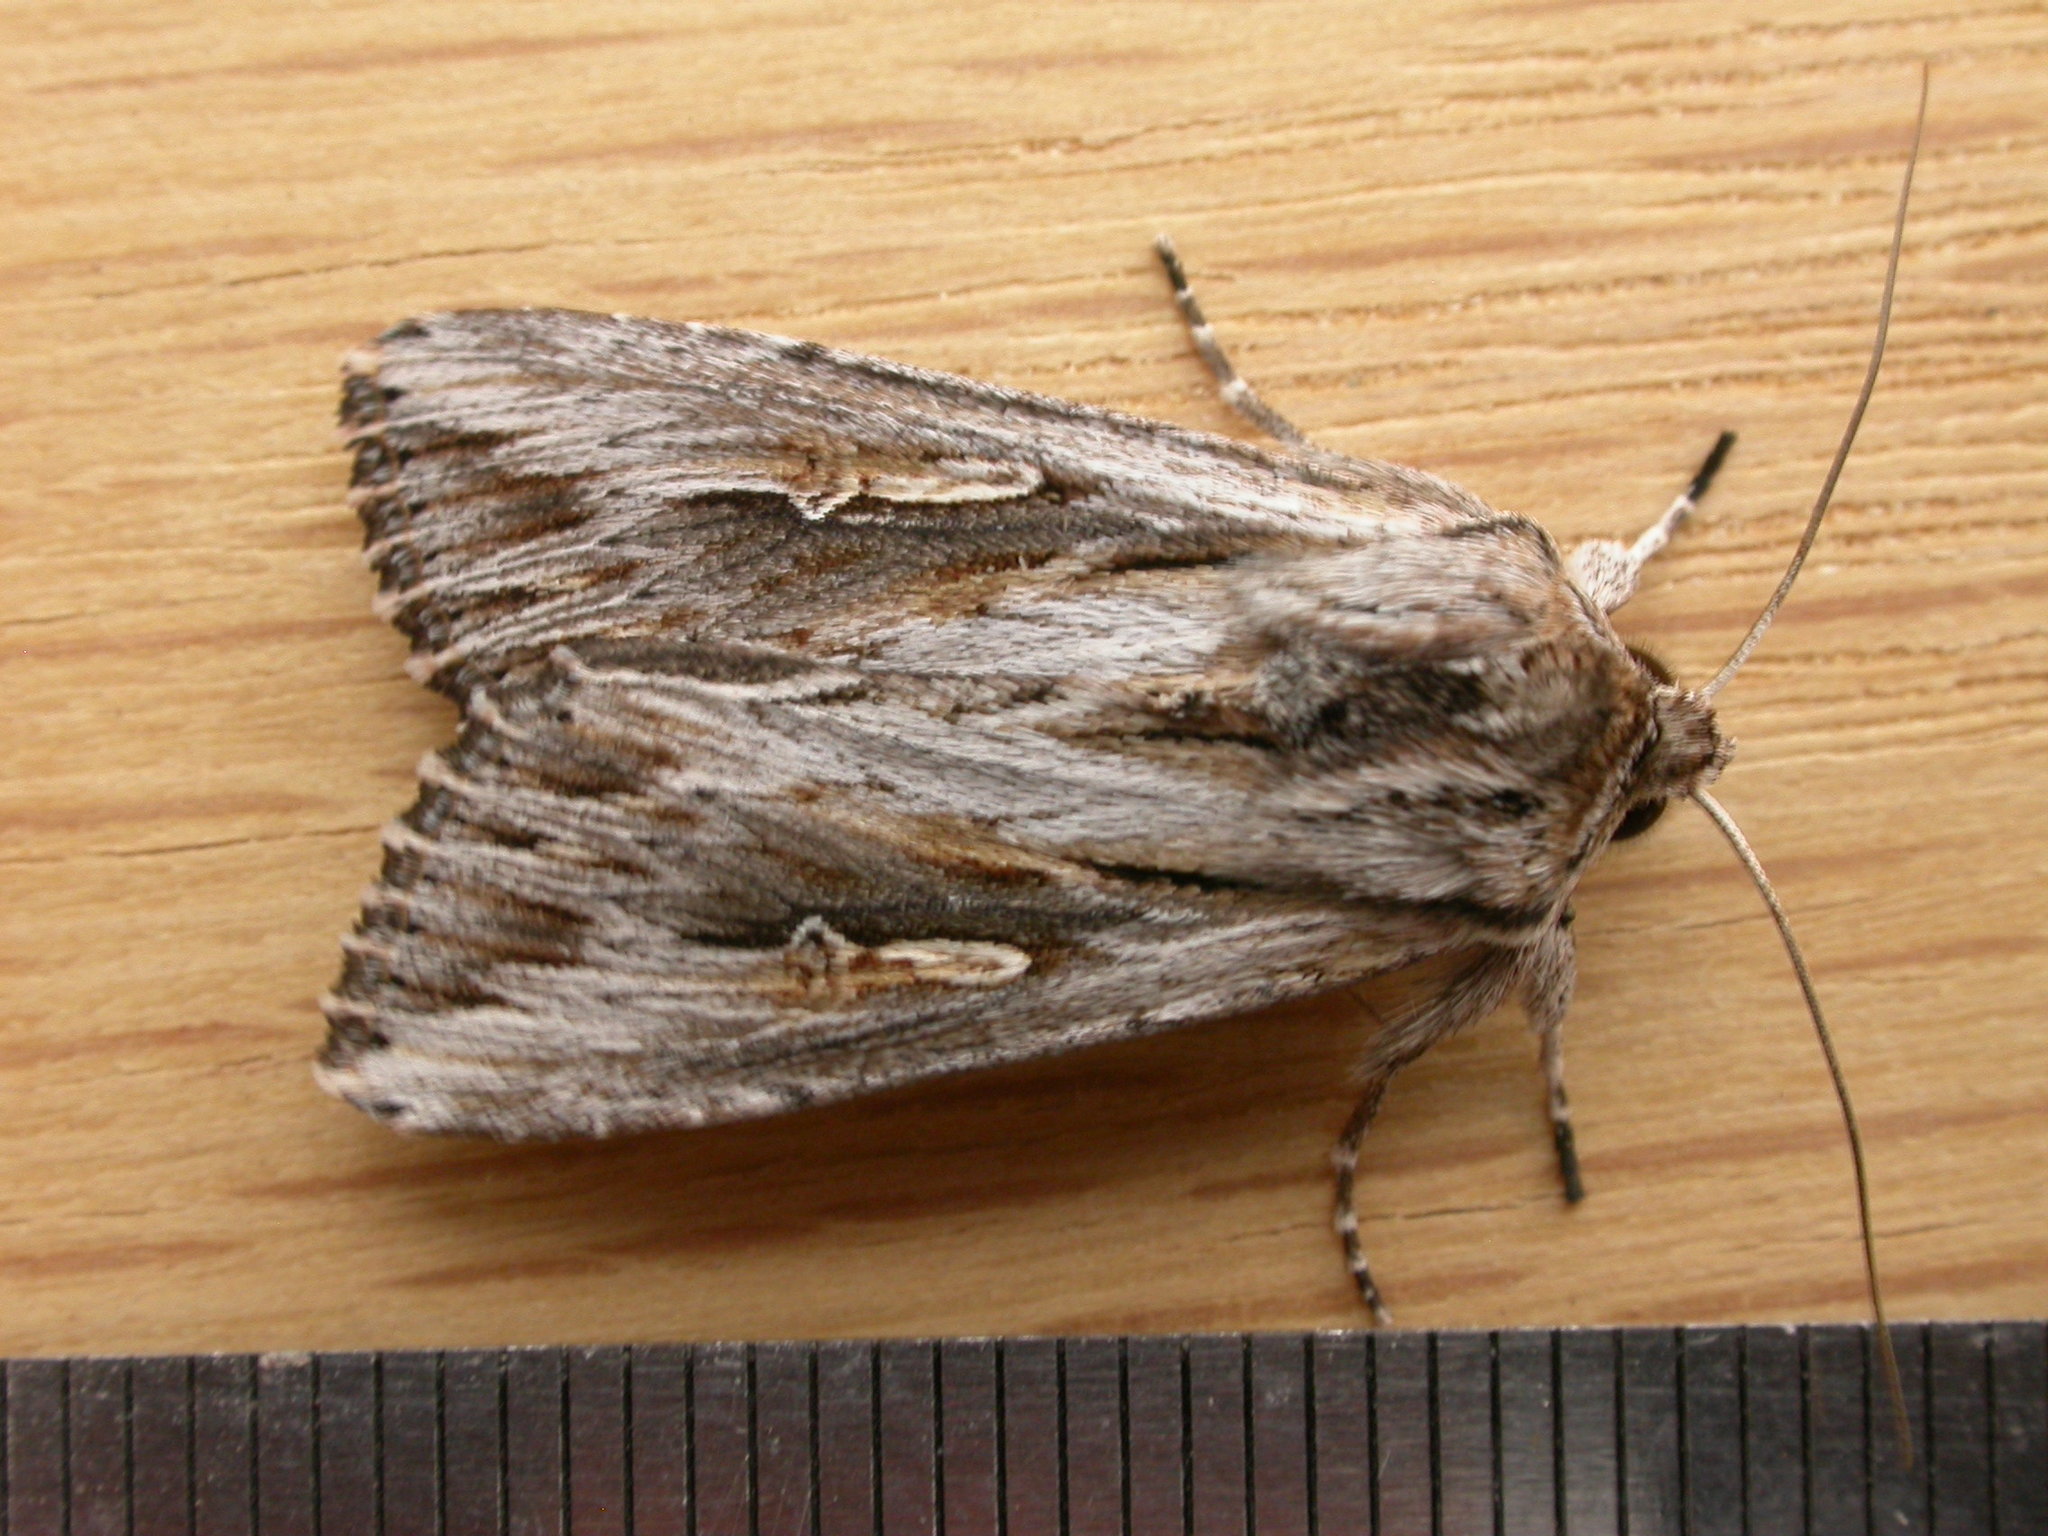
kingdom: Animalia
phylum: Arthropoda
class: Insecta
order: Lepidoptera
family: Noctuidae
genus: Persectania
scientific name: Persectania ewingii
